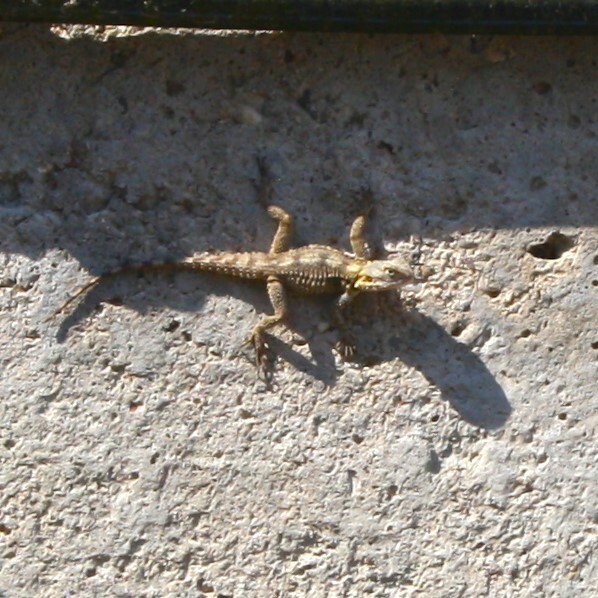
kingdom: Animalia
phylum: Chordata
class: Squamata
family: Agamidae
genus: Stellagama
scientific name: Stellagama stellio
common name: Starred agama
